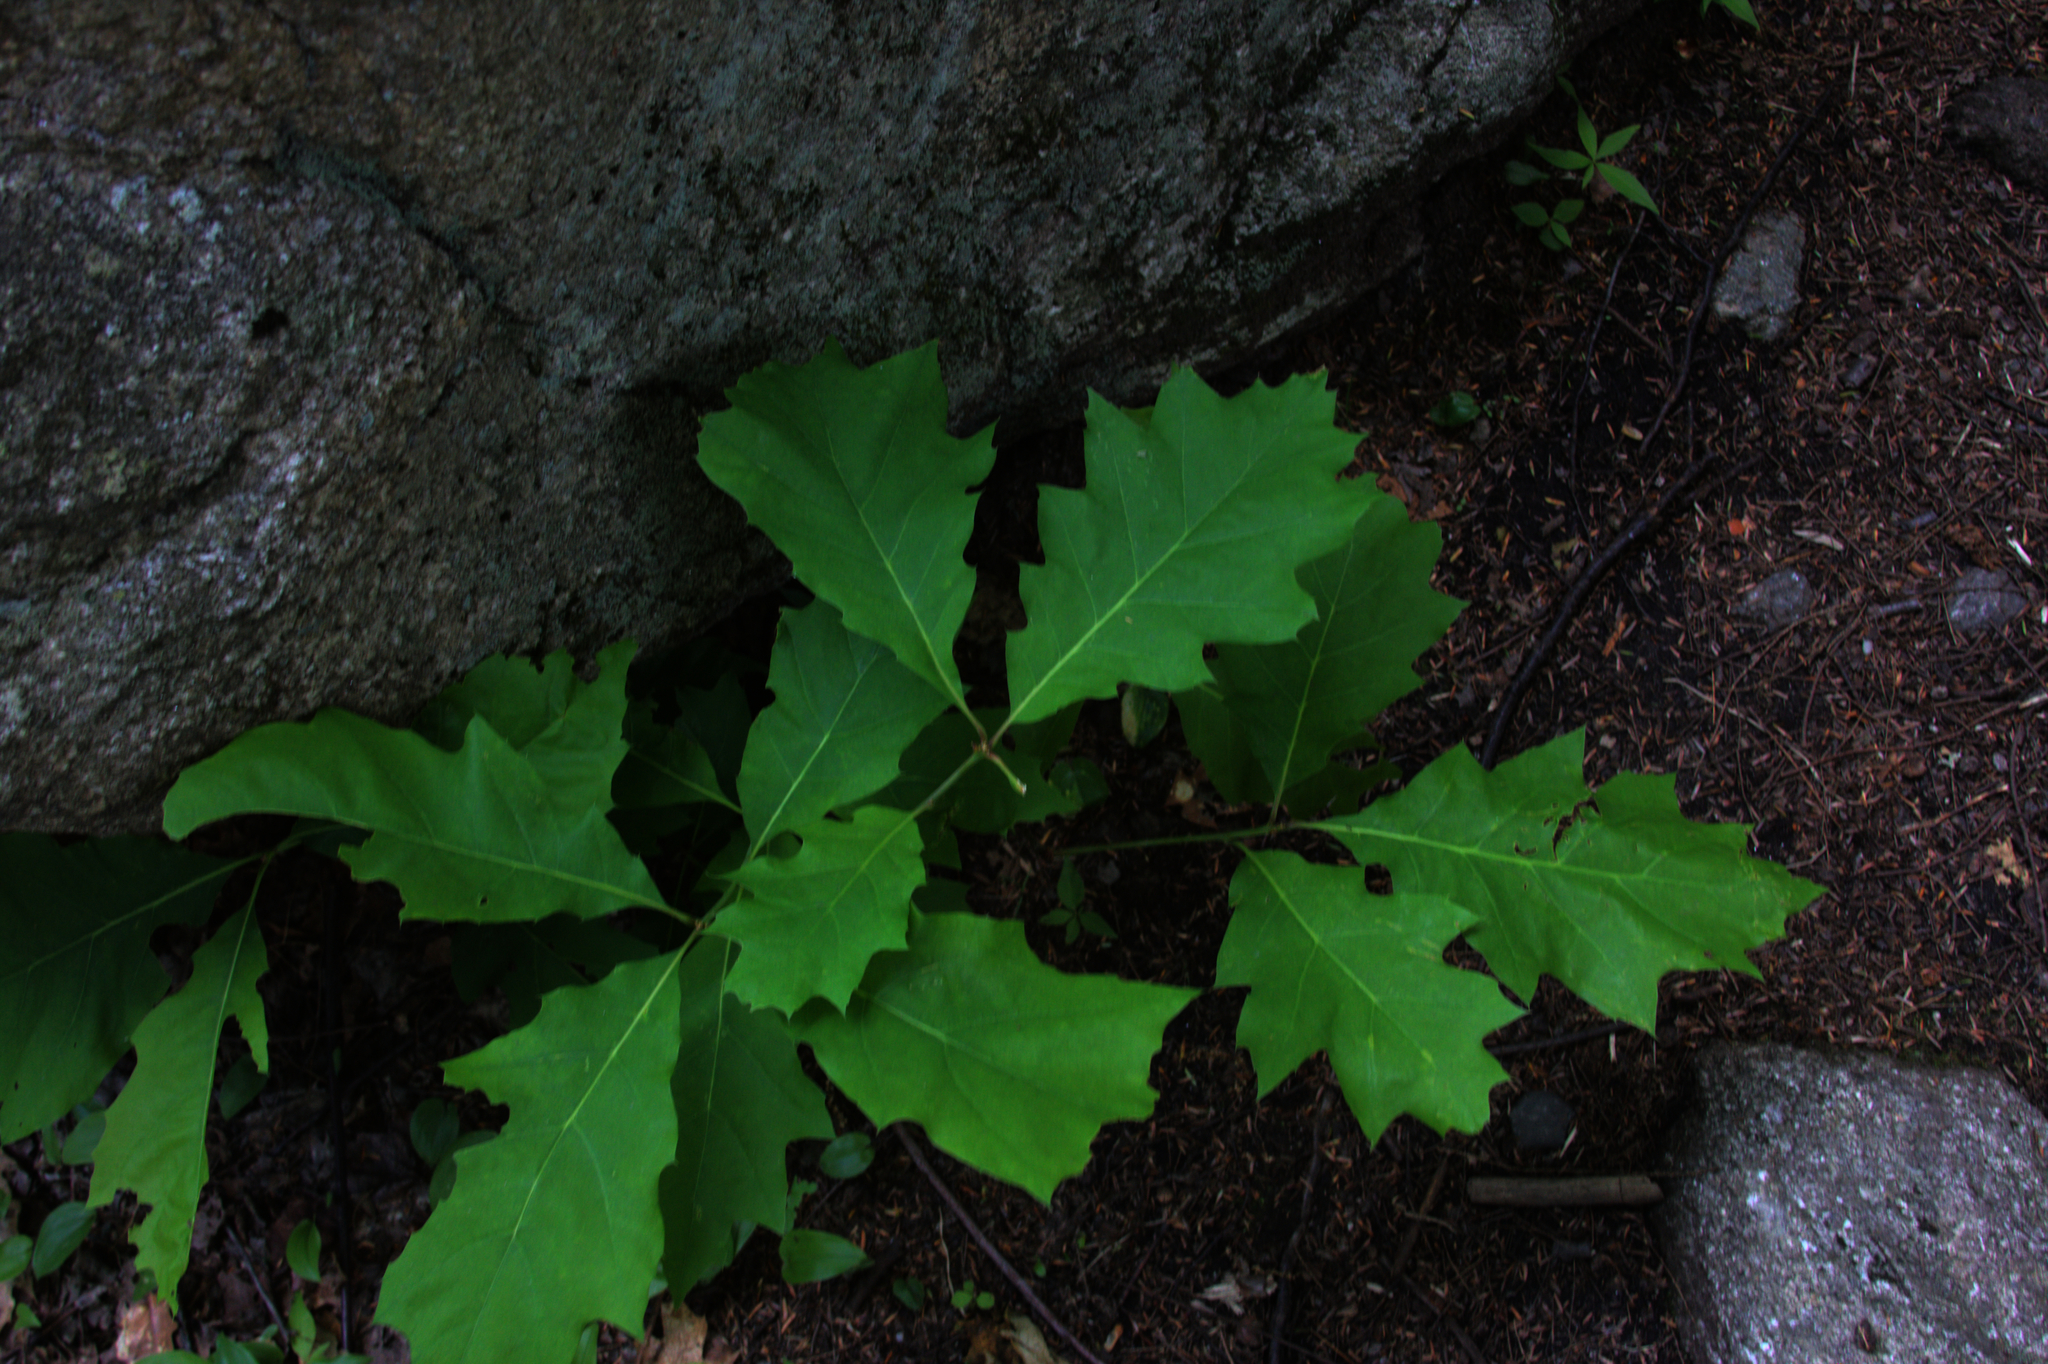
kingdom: Plantae
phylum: Tracheophyta
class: Magnoliopsida
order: Fagales
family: Fagaceae
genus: Quercus
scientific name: Quercus rubra
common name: Red oak
